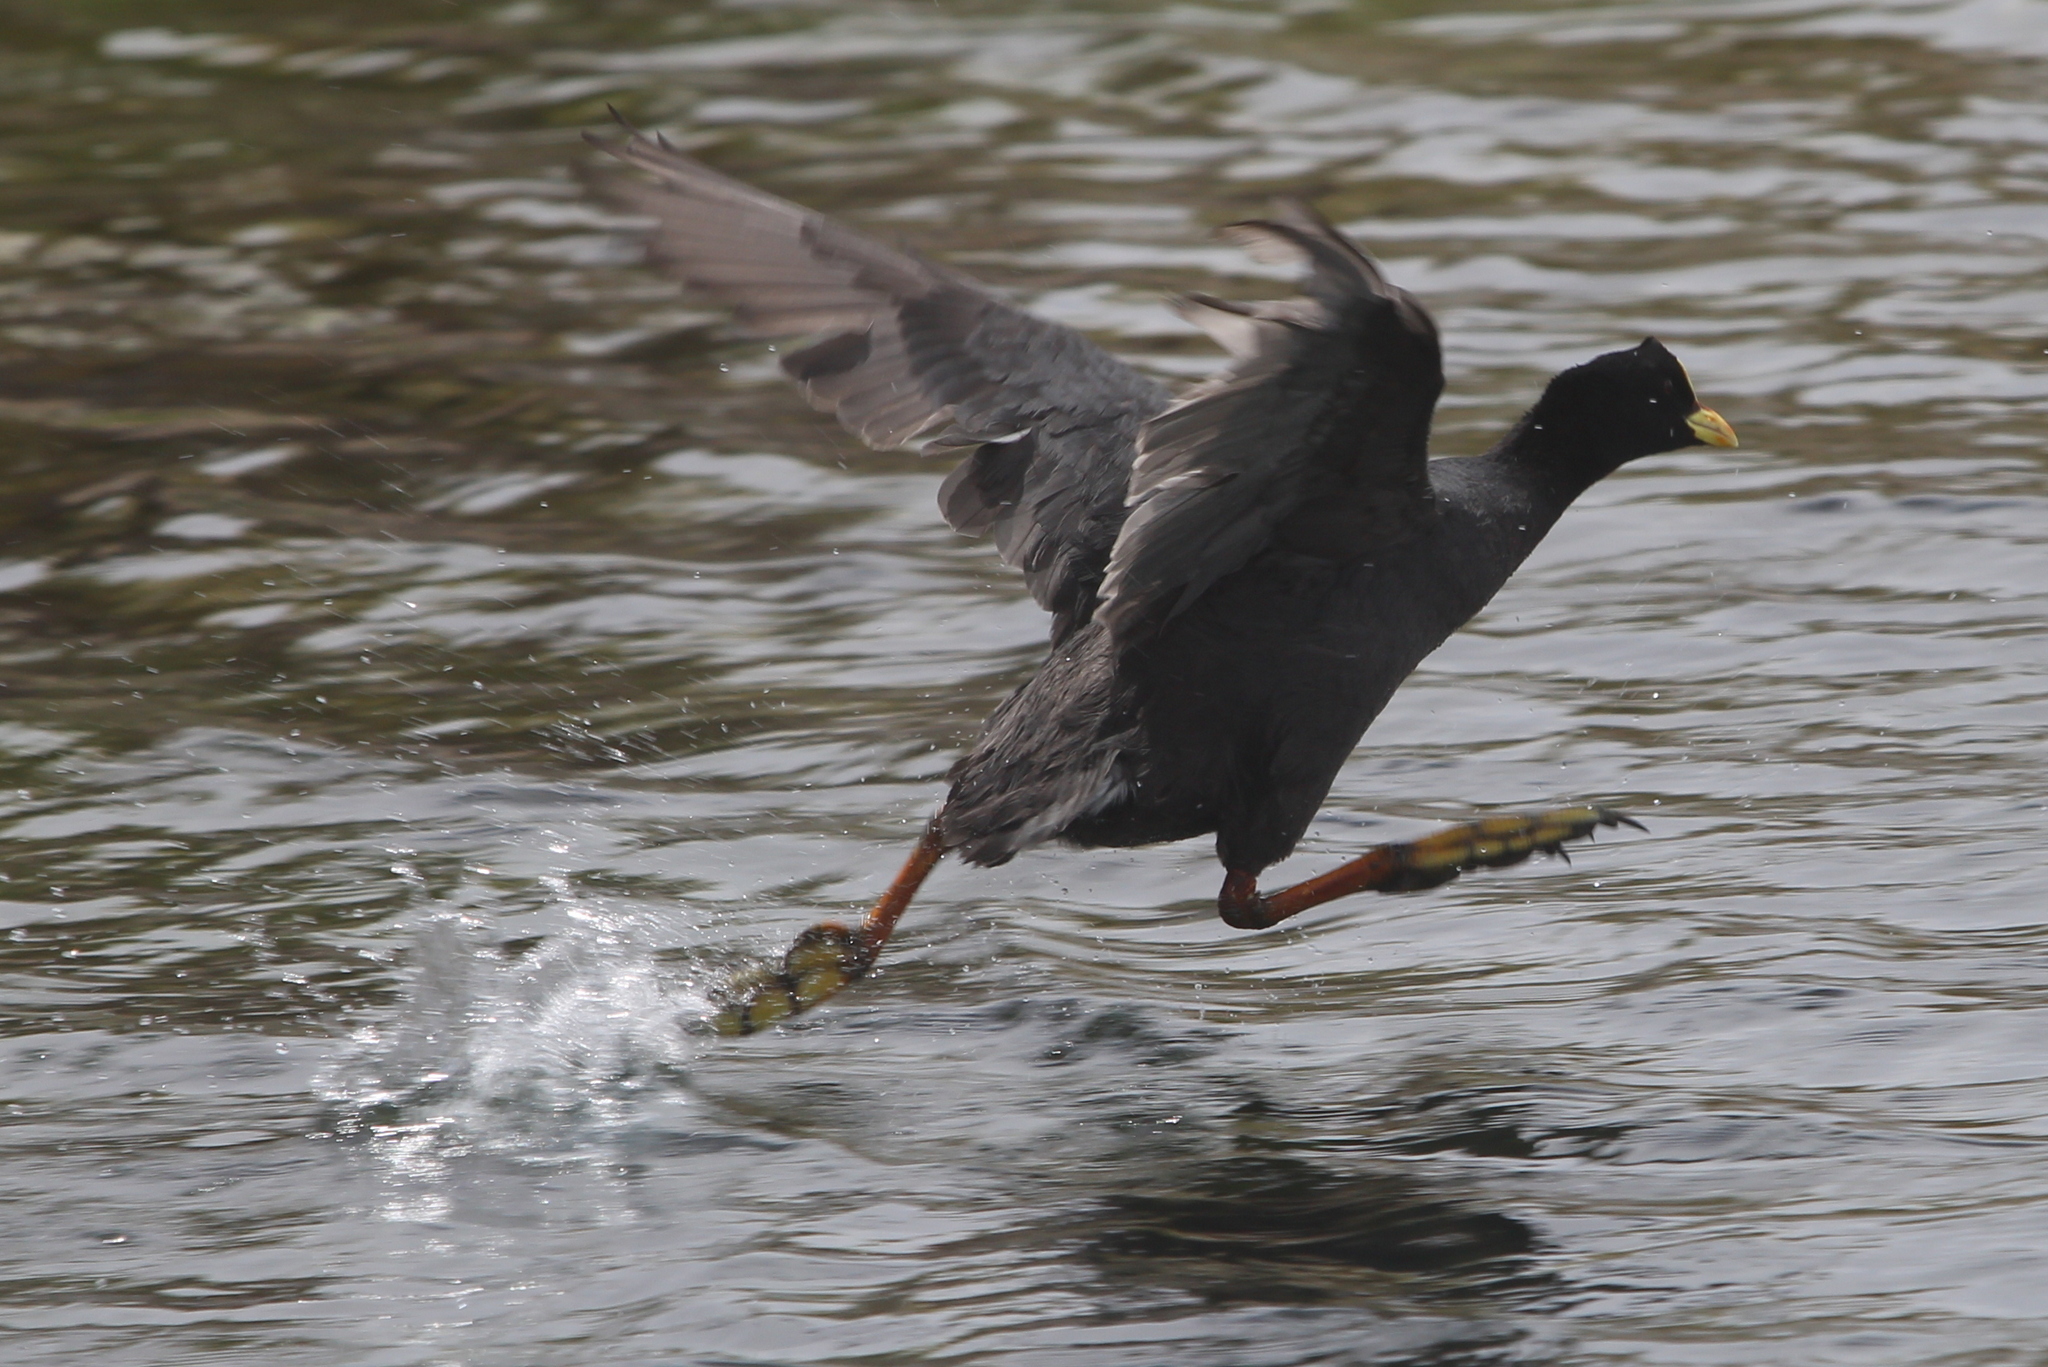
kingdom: Animalia
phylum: Chordata
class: Aves
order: Gruiformes
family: Rallidae
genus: Fulica
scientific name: Fulica armillata
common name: Red-gartered coot
